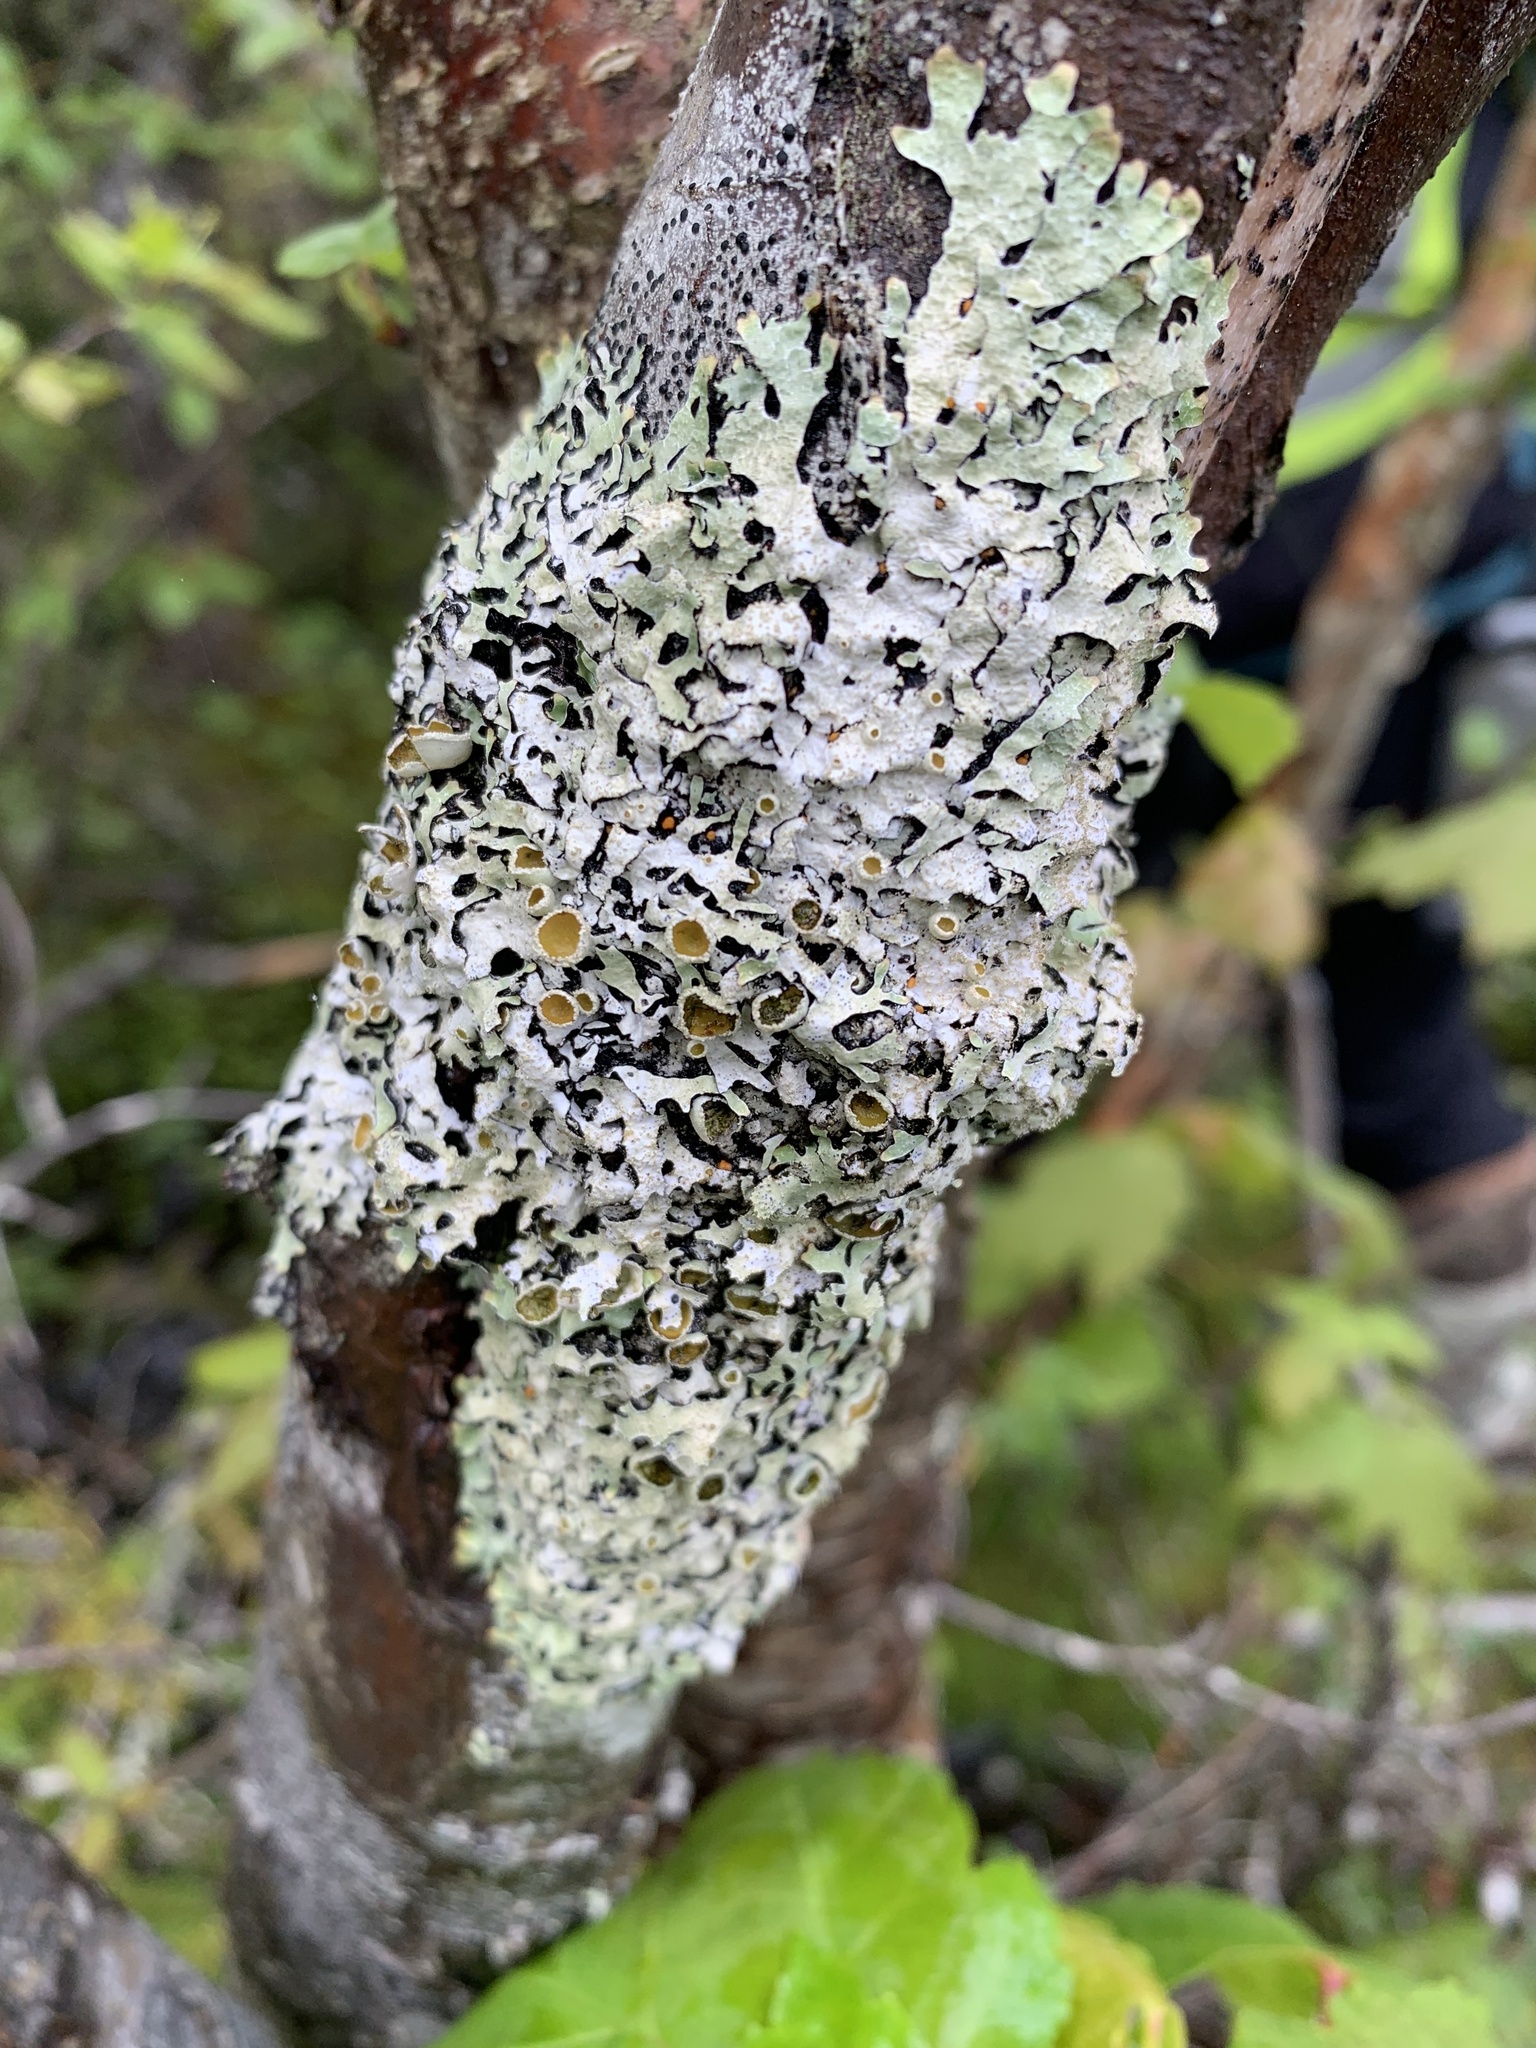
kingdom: Fungi
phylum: Ascomycota
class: Lecanoromycetes
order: Lecanorales
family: Parmeliaceae
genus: Parmelia
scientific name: Parmelia squarrosa
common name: Bottle brush shield lichen
